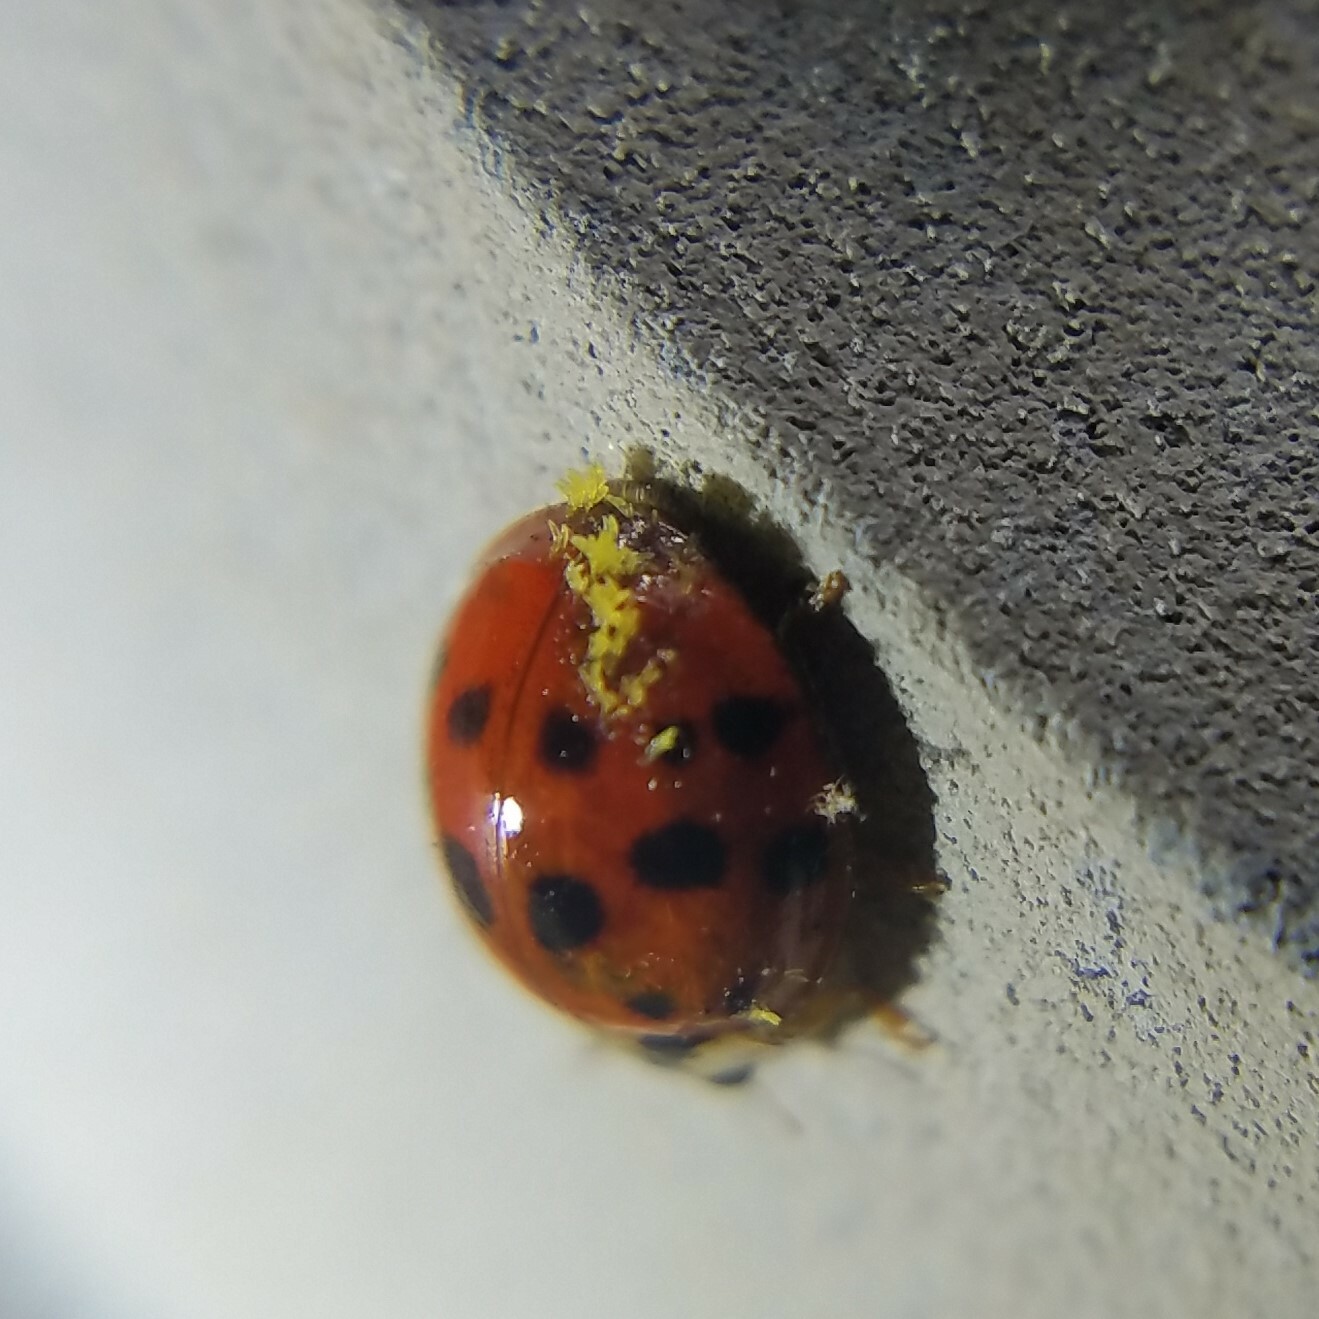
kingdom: Fungi
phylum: Ascomycota
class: Laboulbeniomycetes
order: Laboulbeniales
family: Laboulbeniaceae
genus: Hesperomyces
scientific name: Hesperomyces harmoniae
